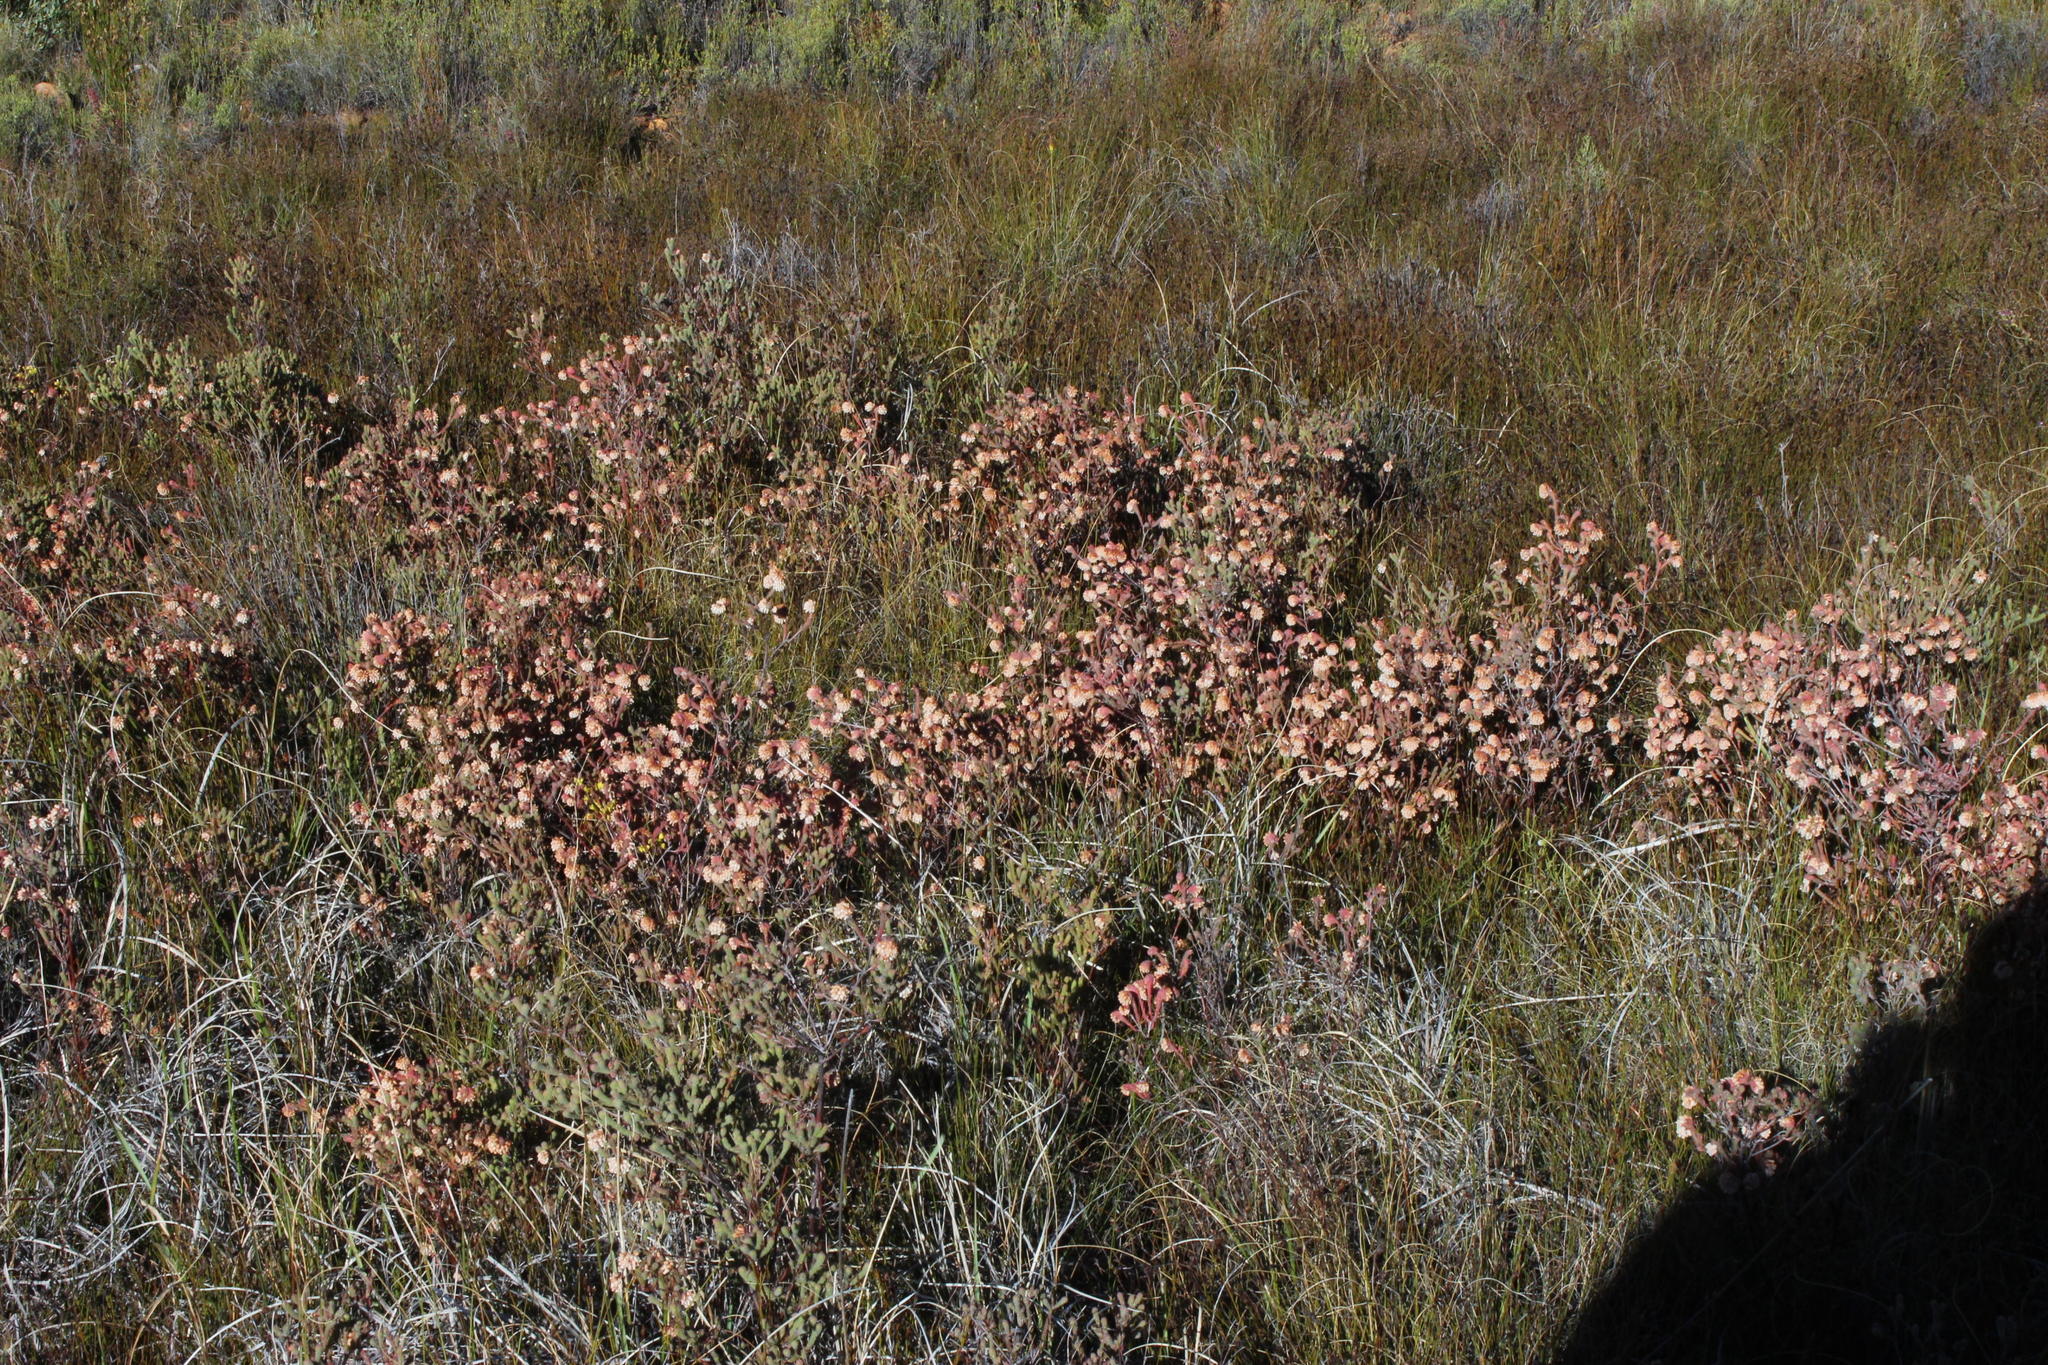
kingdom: Plantae
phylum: Tracheophyta
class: Magnoliopsida
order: Ericales
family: Ericaceae
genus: Erica
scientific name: Erica maderi
